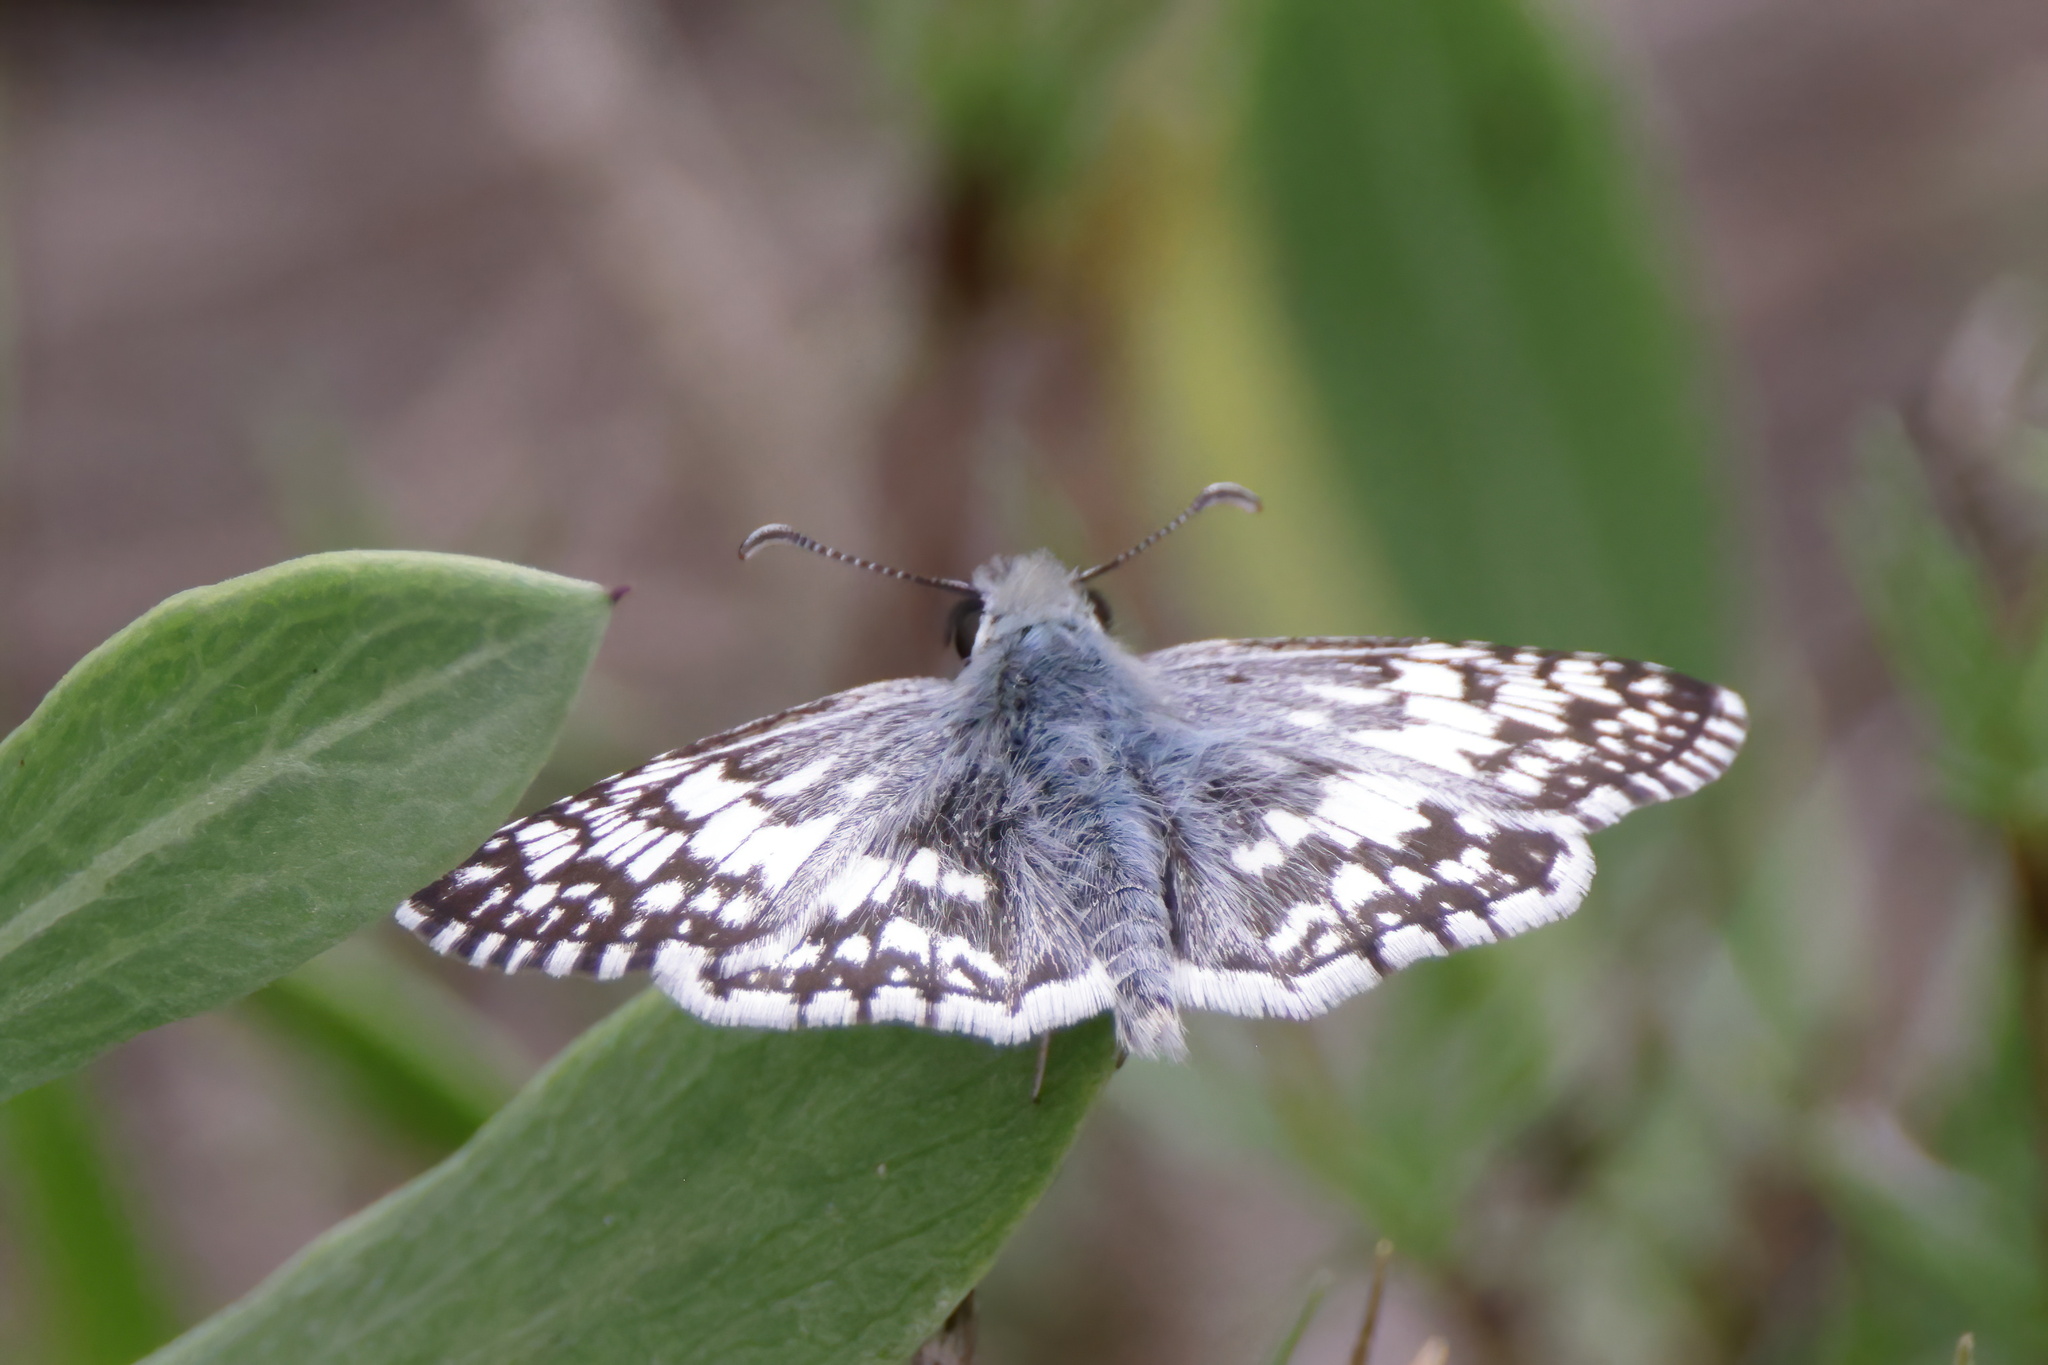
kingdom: Animalia
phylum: Arthropoda
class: Insecta
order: Lepidoptera
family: Hesperiidae
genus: Burnsius
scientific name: Burnsius albezens
